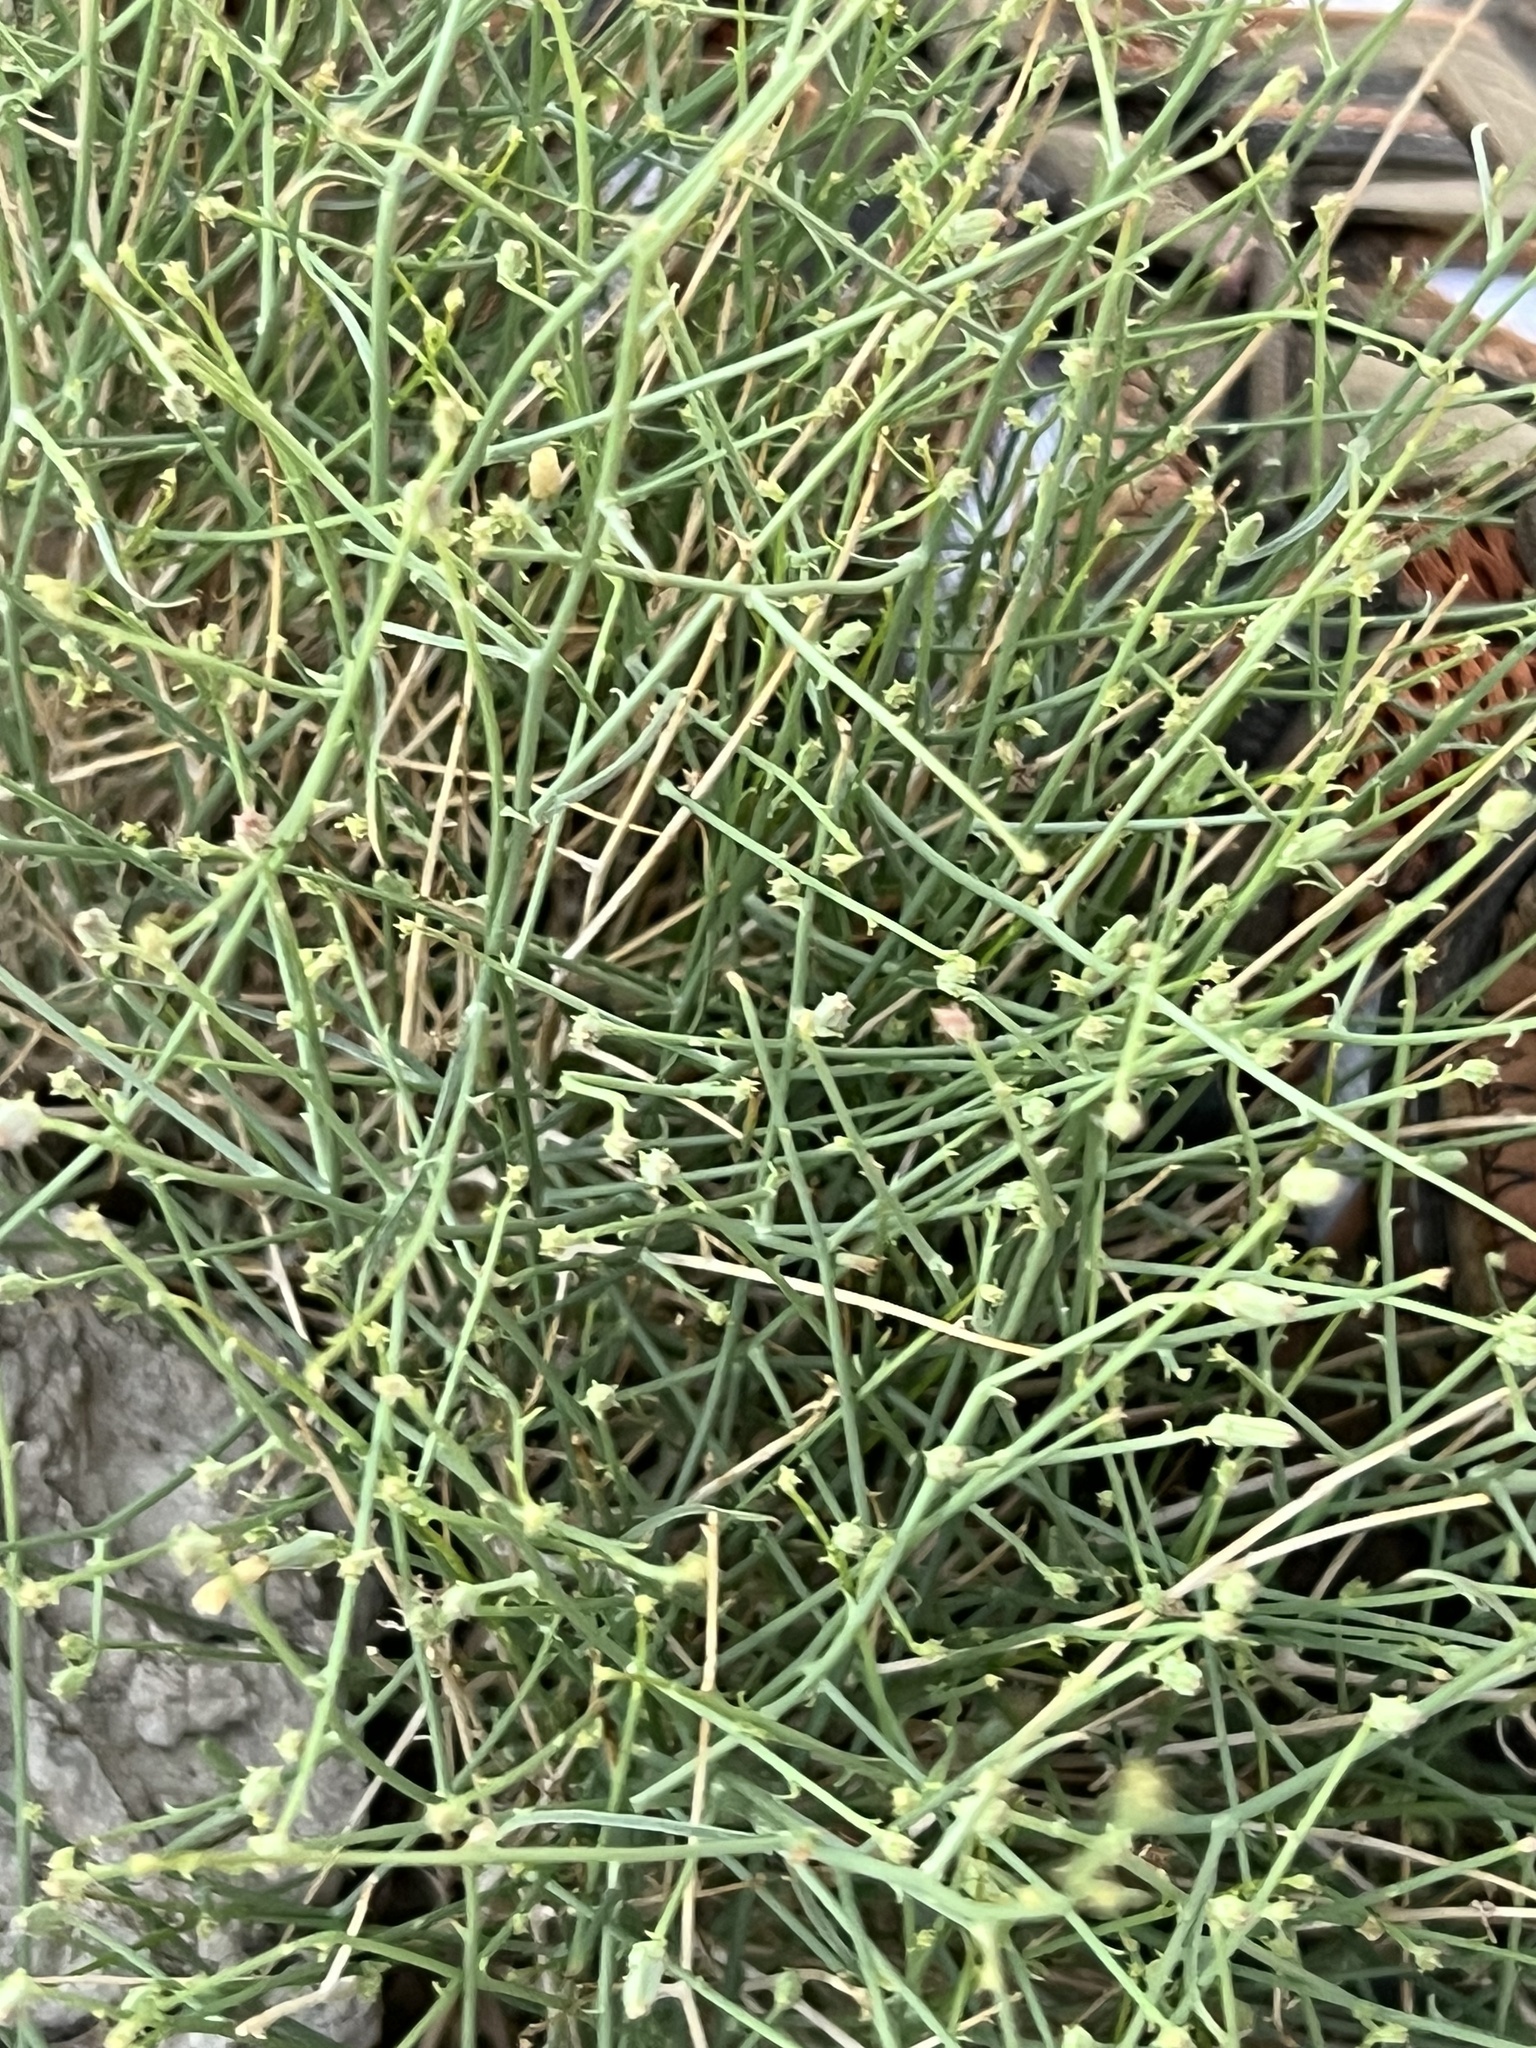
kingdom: Plantae
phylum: Tracheophyta
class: Magnoliopsida
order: Asterales
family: Asteraceae
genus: Stephanomeria
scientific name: Stephanomeria pauciflora
